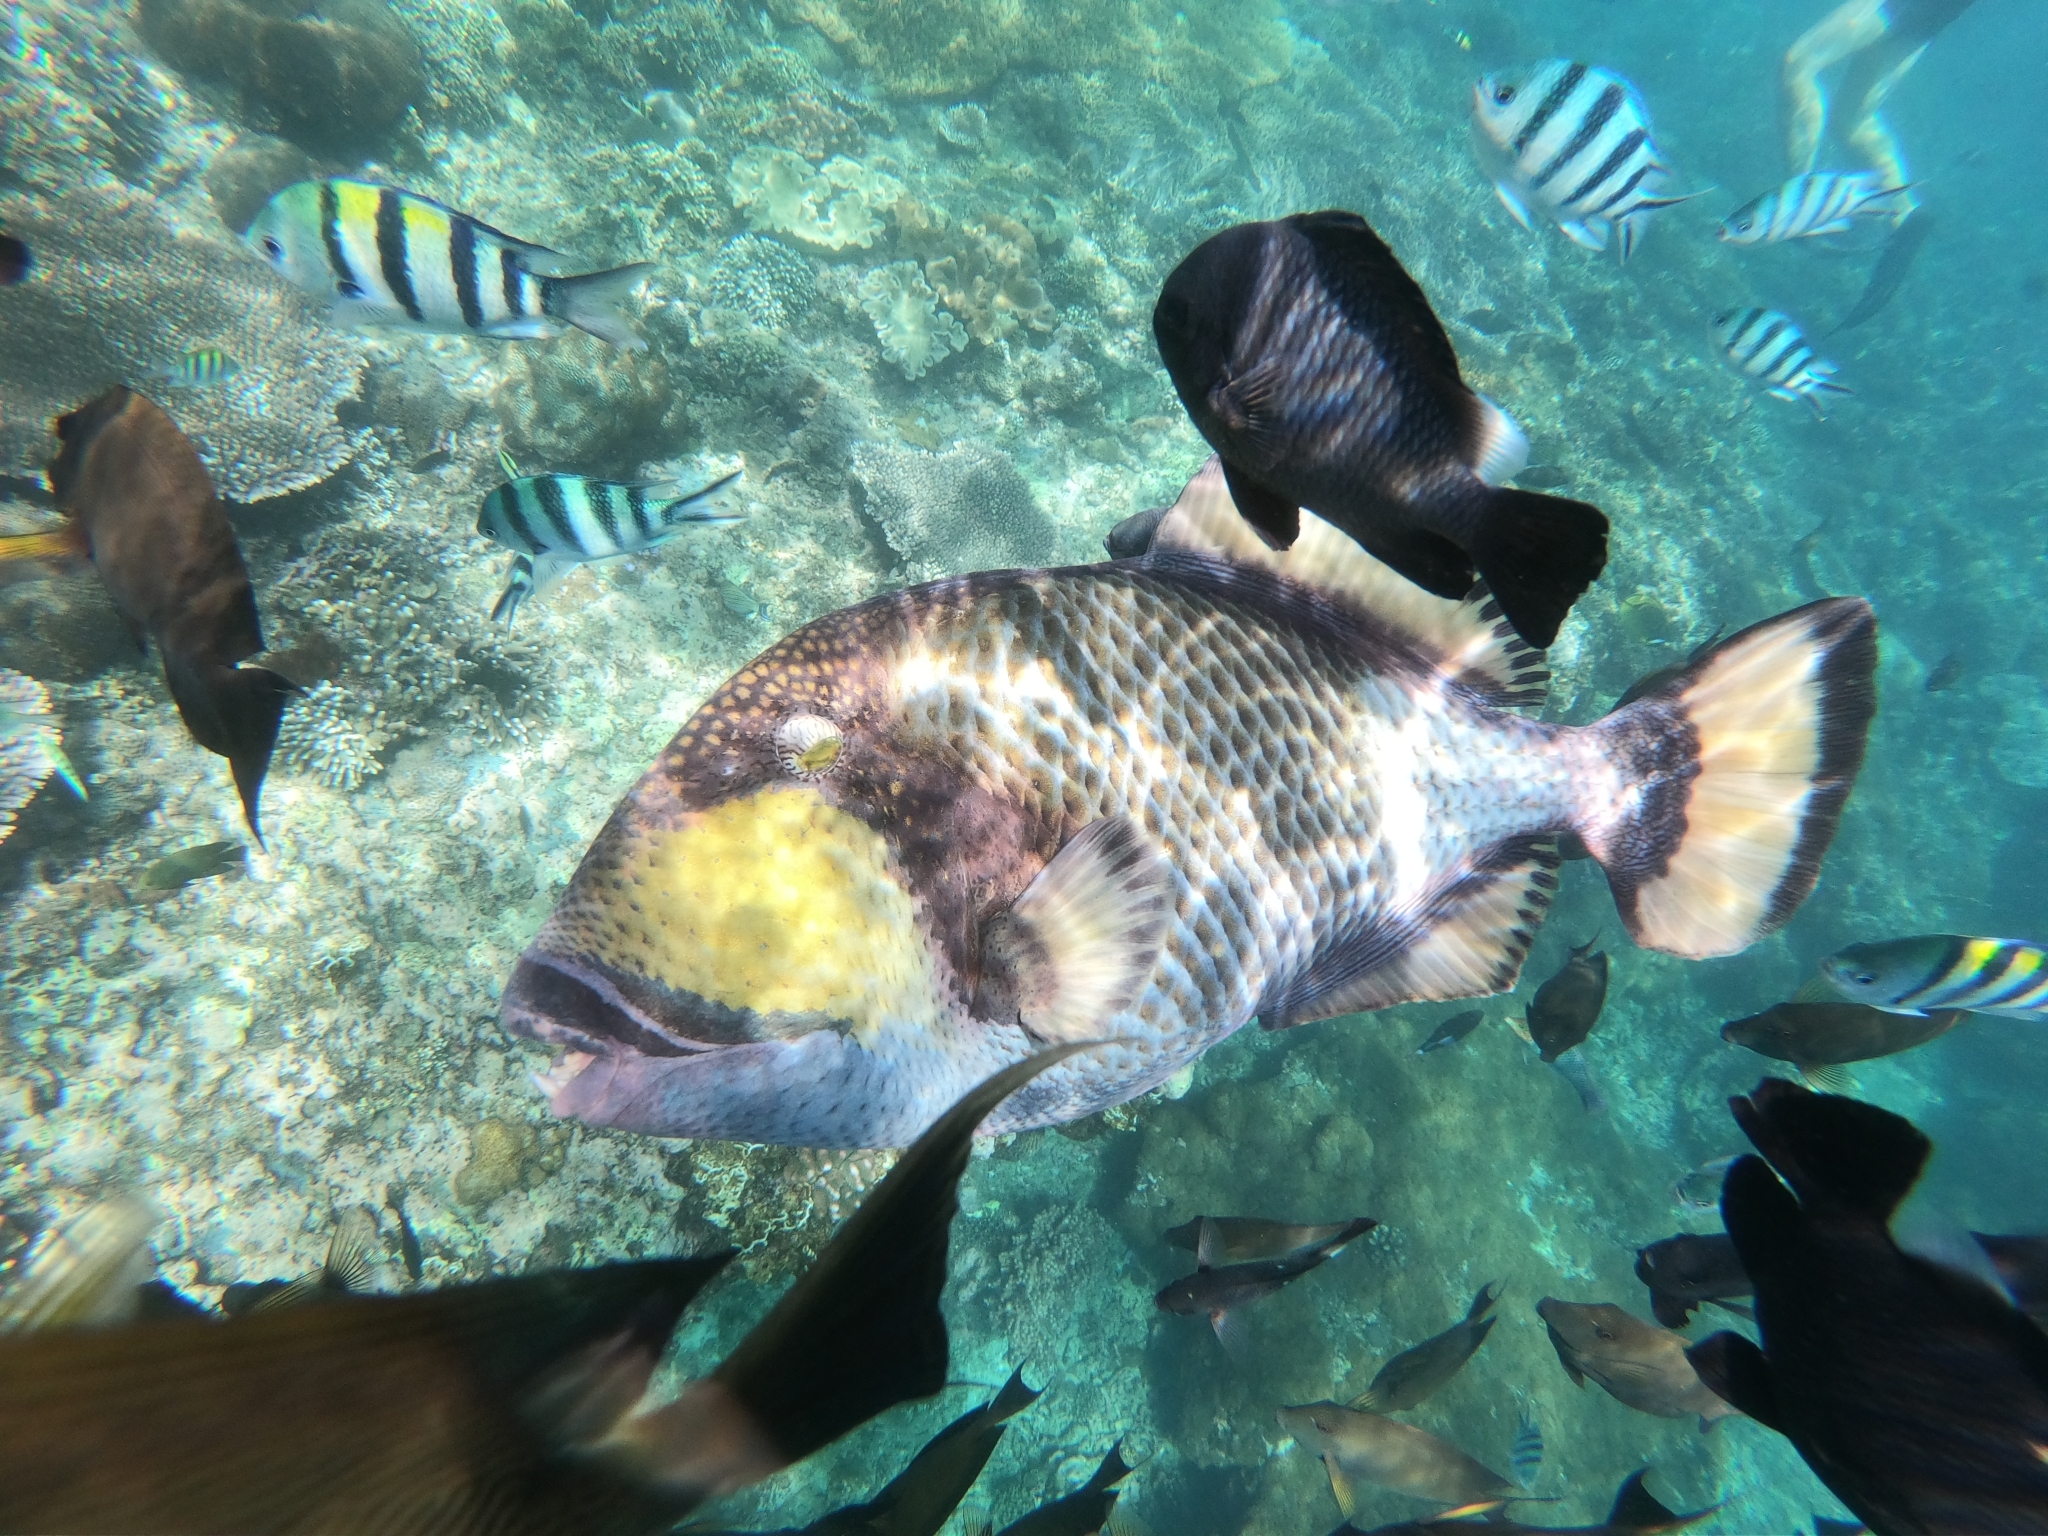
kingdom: Animalia
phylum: Chordata
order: Tetraodontiformes
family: Balistidae
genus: Balistoides
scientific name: Balistoides viridescens
